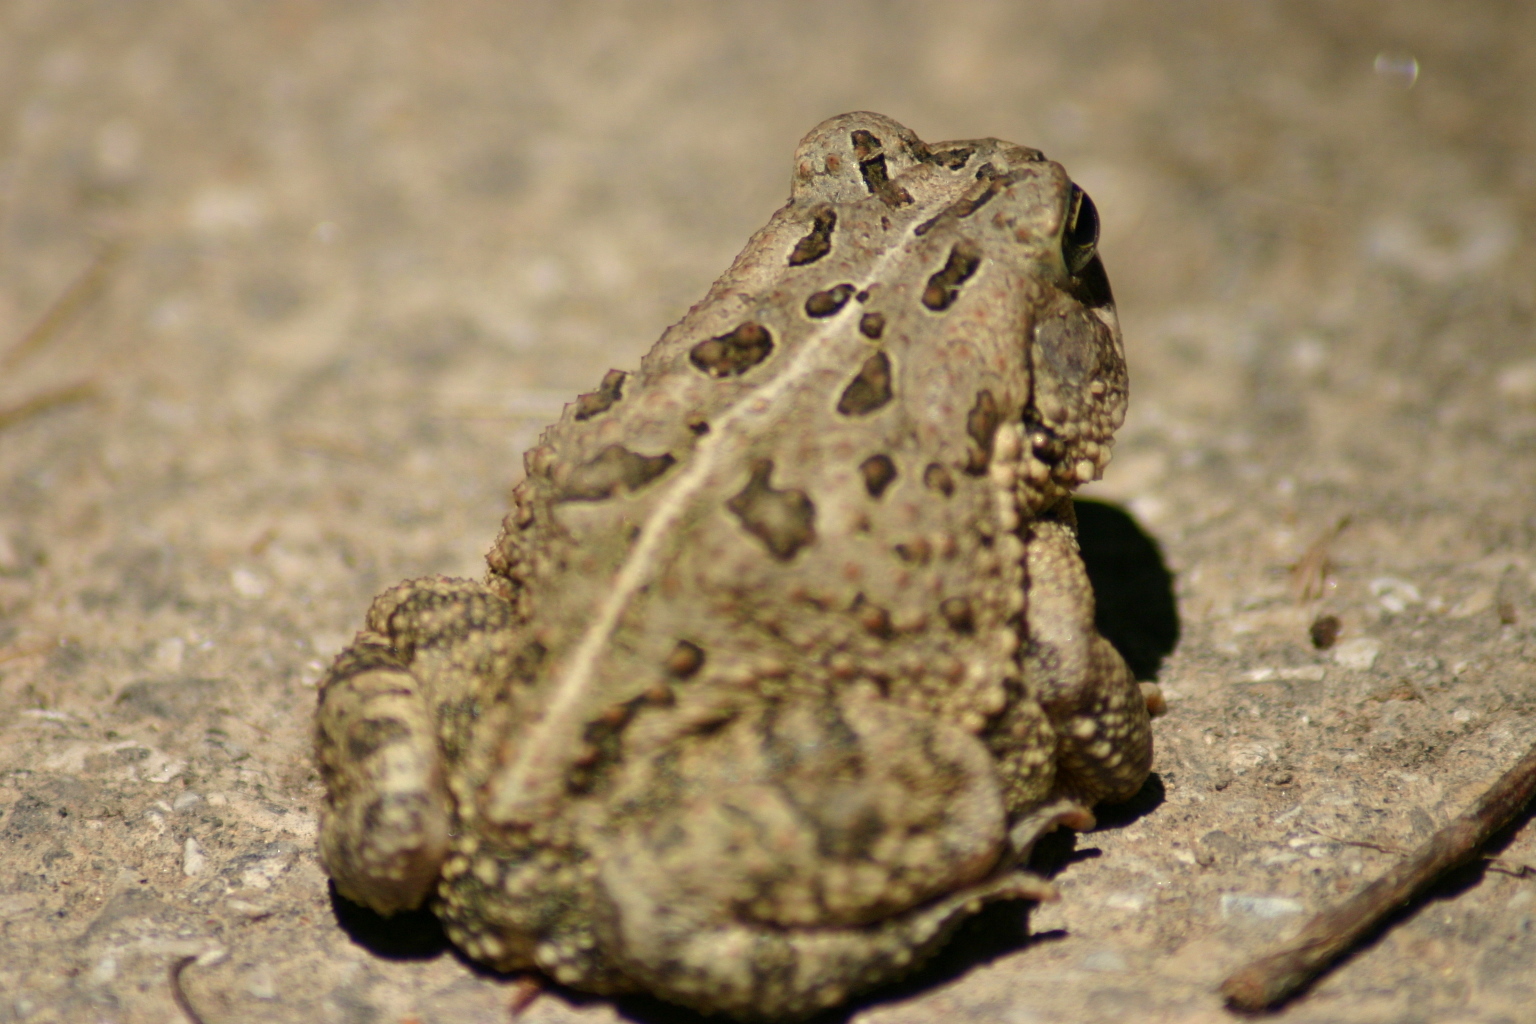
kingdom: Animalia
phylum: Chordata
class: Amphibia
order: Anura
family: Bufonidae
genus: Anaxyrus
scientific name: Anaxyrus fowleri
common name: Fowler's toad
